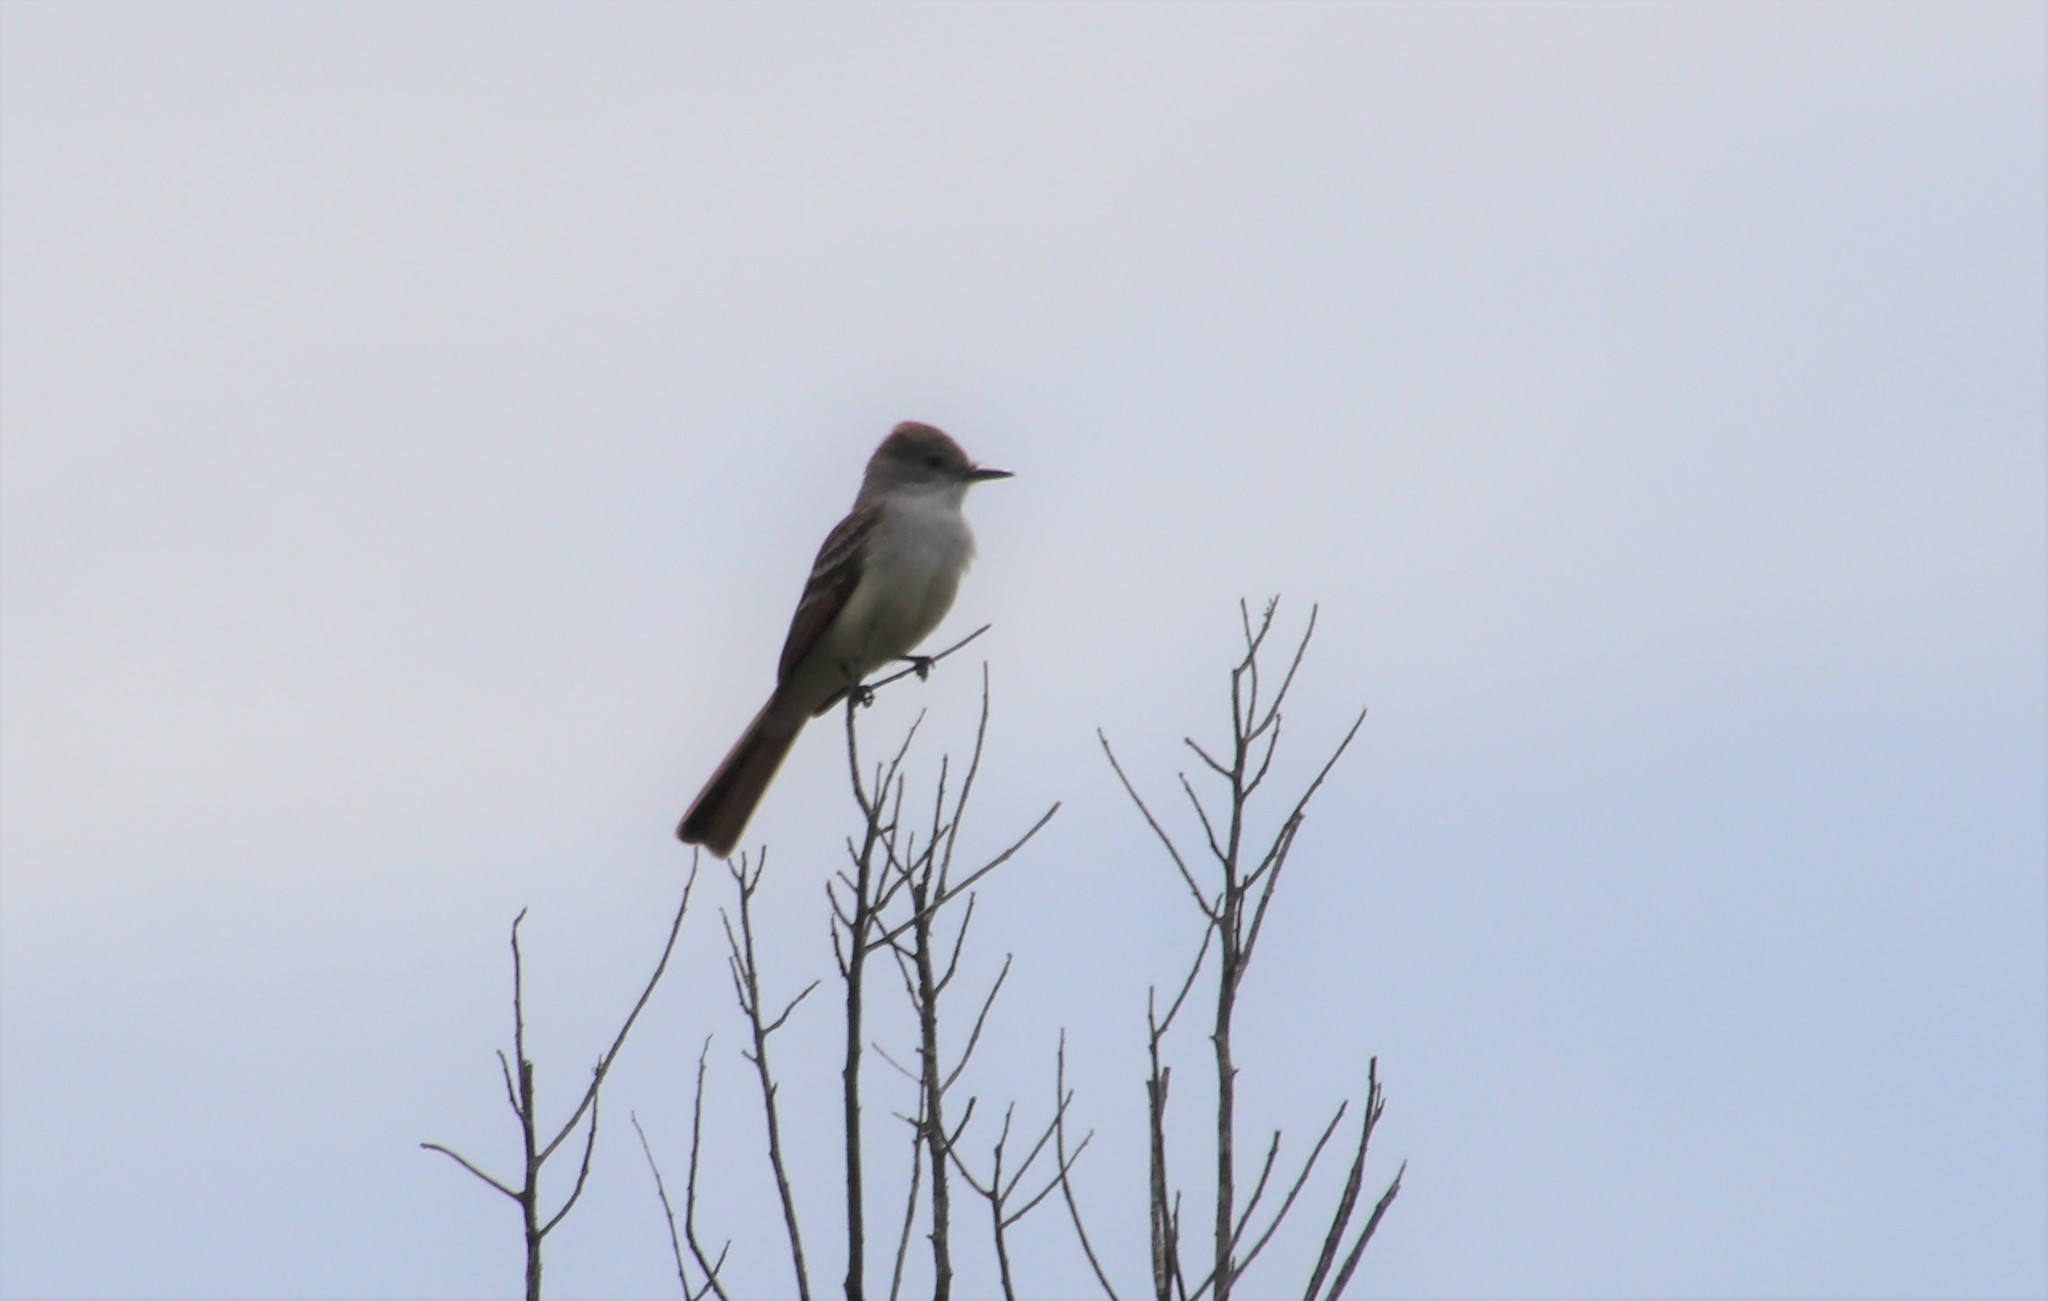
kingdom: Animalia
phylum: Chordata
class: Aves
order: Passeriformes
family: Tyrannidae
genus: Myiarchus
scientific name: Myiarchus cinerascens
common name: Ash-throated flycatcher
